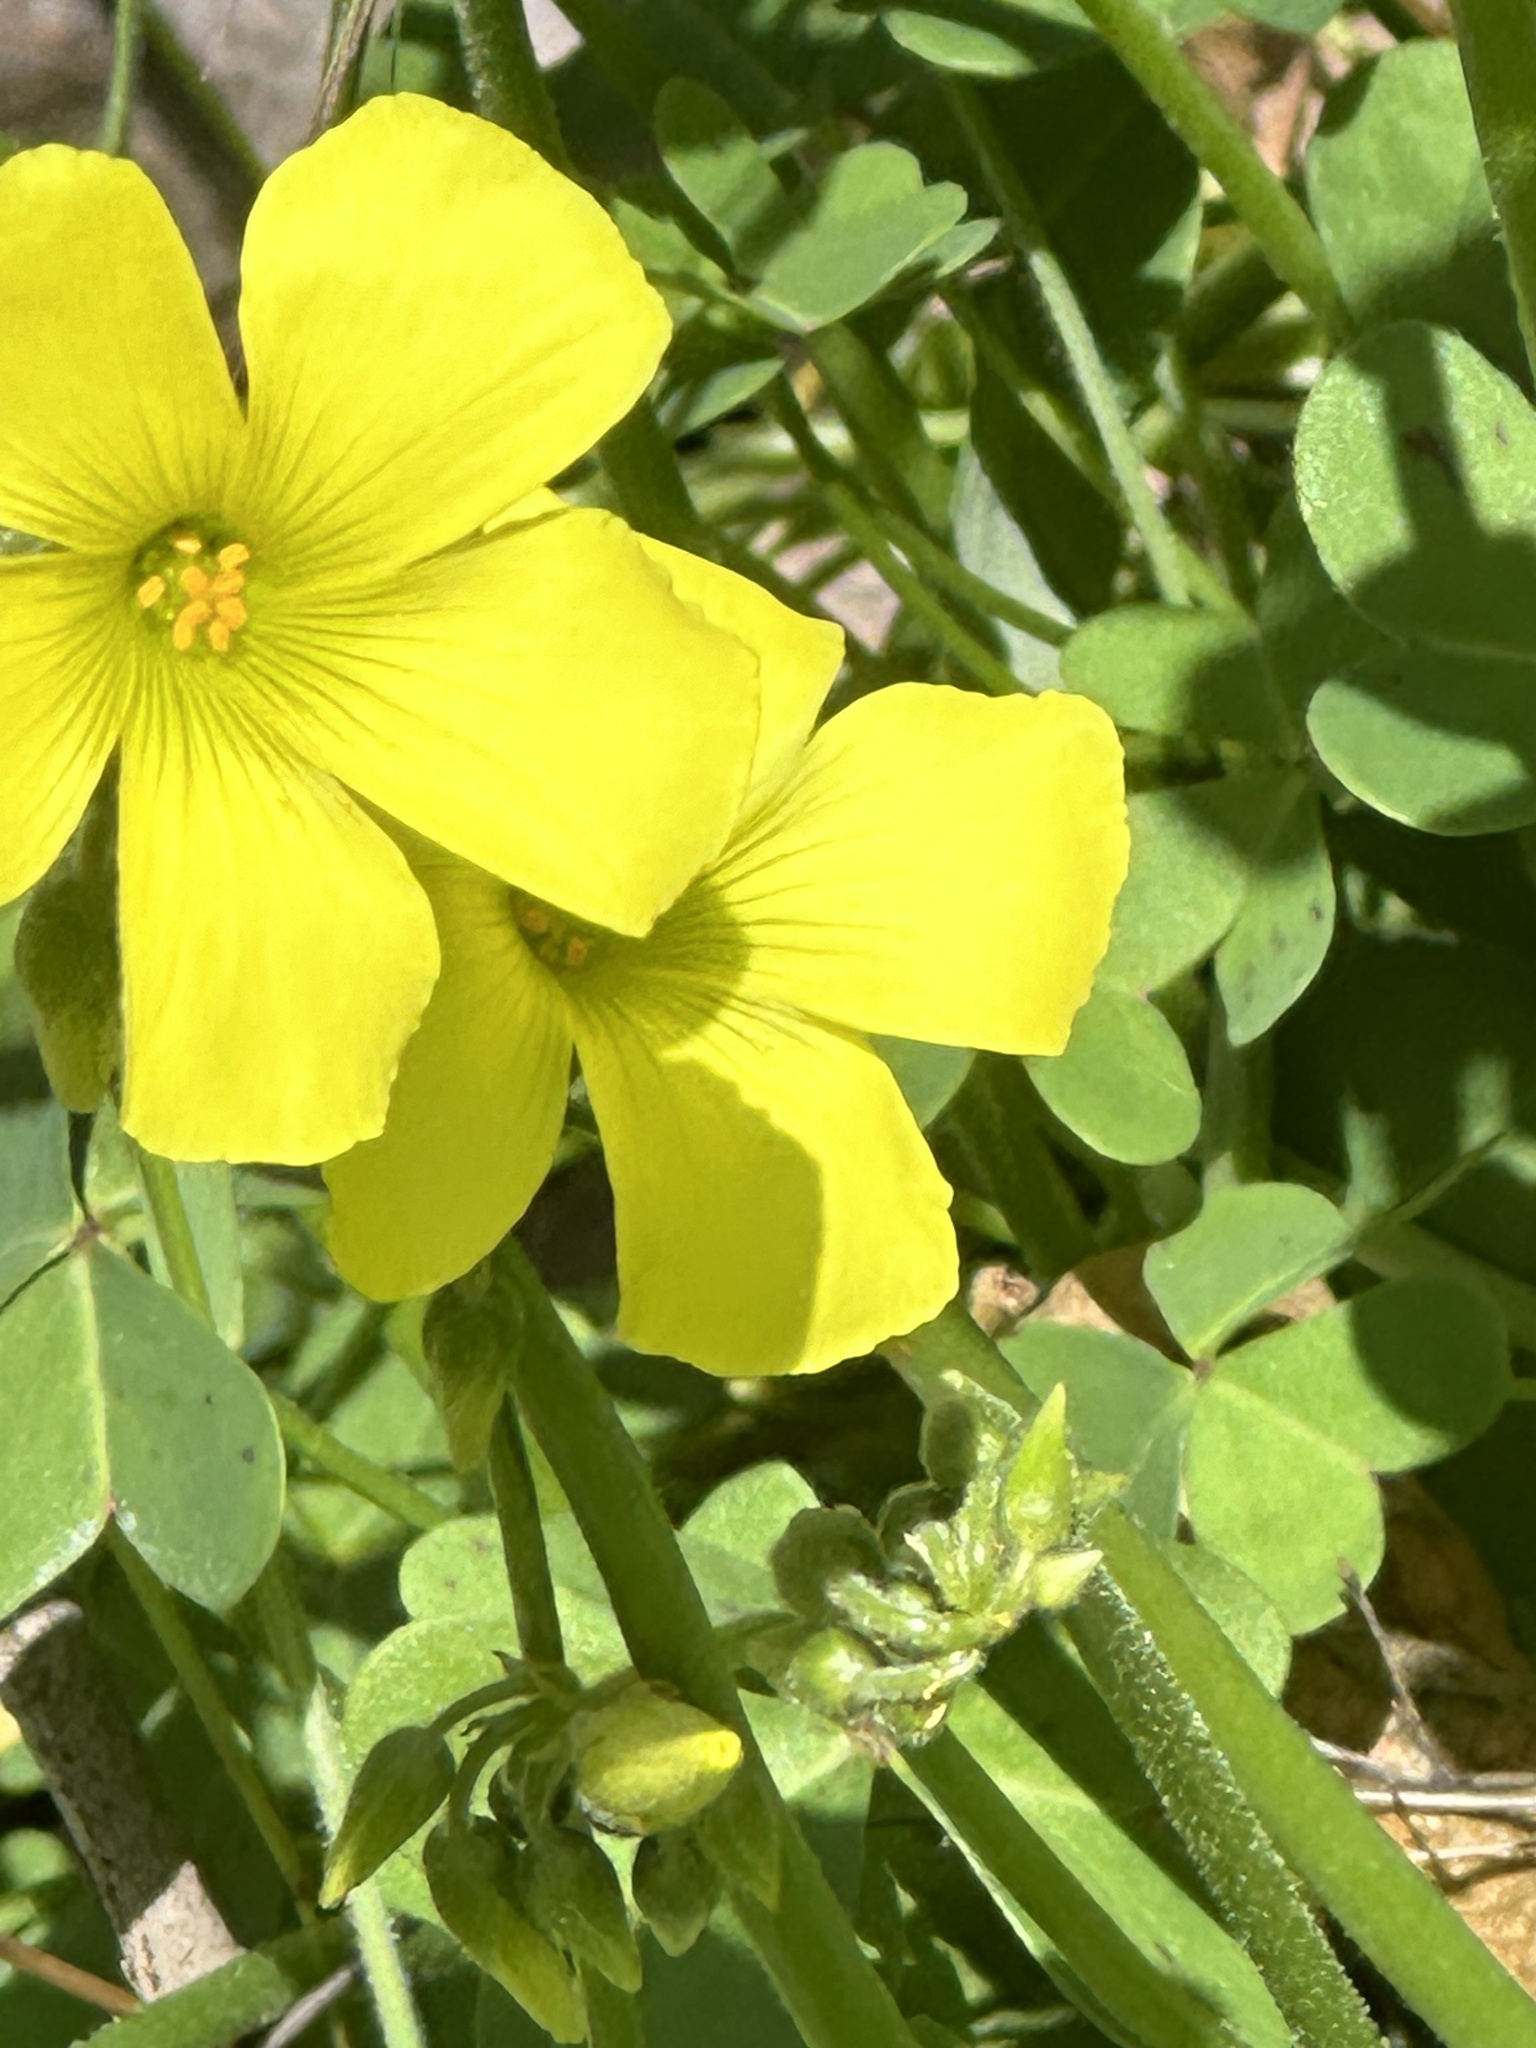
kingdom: Plantae
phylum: Tracheophyta
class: Magnoliopsida
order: Oxalidales
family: Oxalidaceae
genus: Oxalis
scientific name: Oxalis pes-caprae
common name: Bermuda-buttercup
